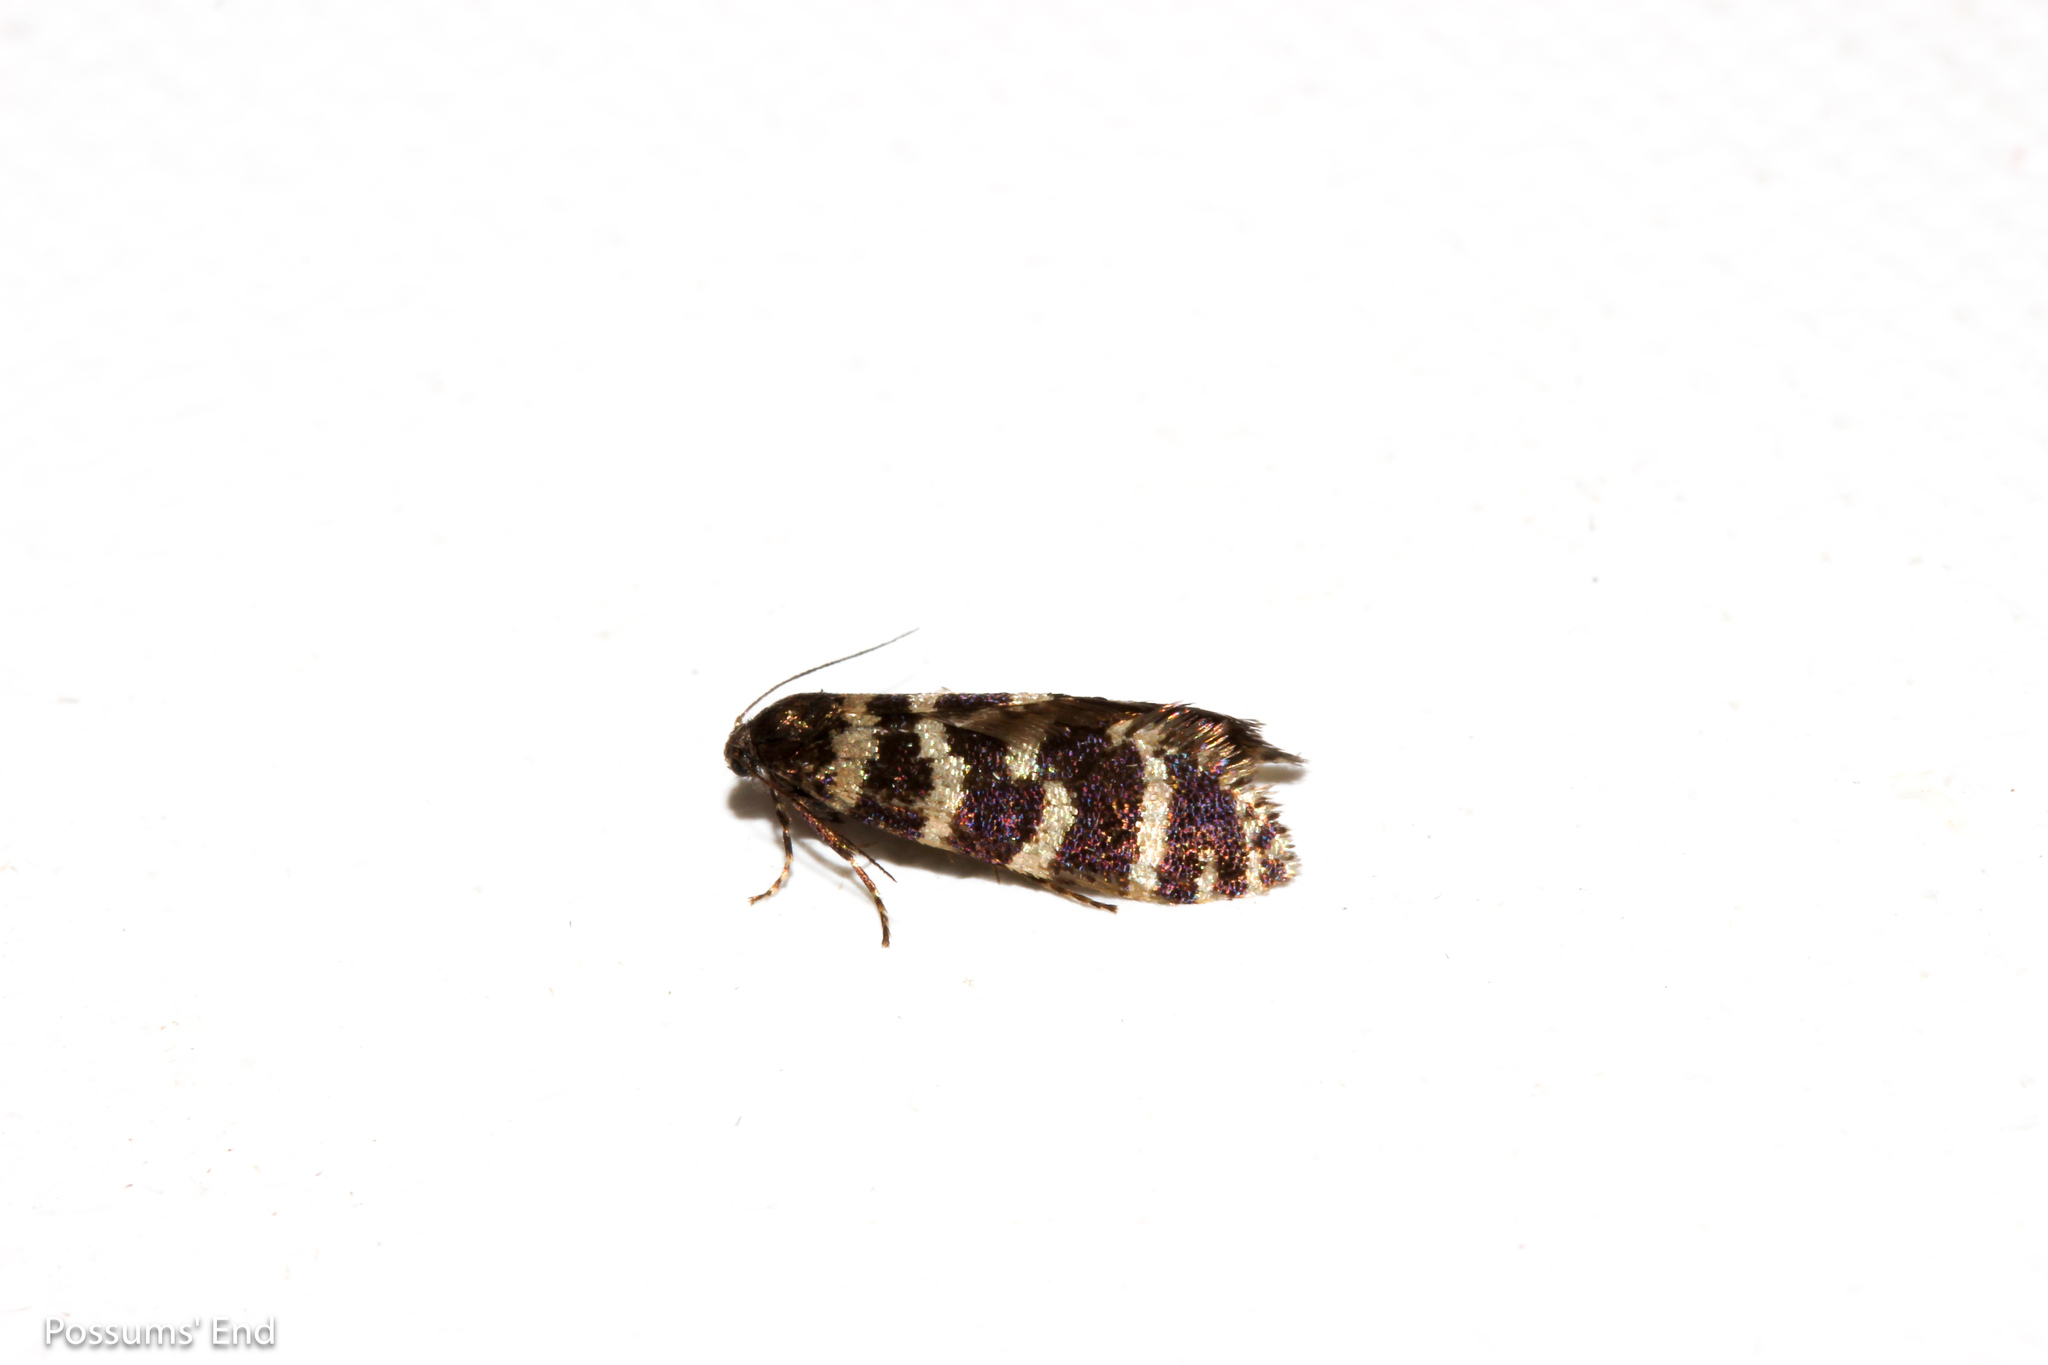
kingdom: Animalia
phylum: Arthropoda
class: Insecta
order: Lepidoptera
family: Psychidae
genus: Mallobathra
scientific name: Mallobathra memotuina
